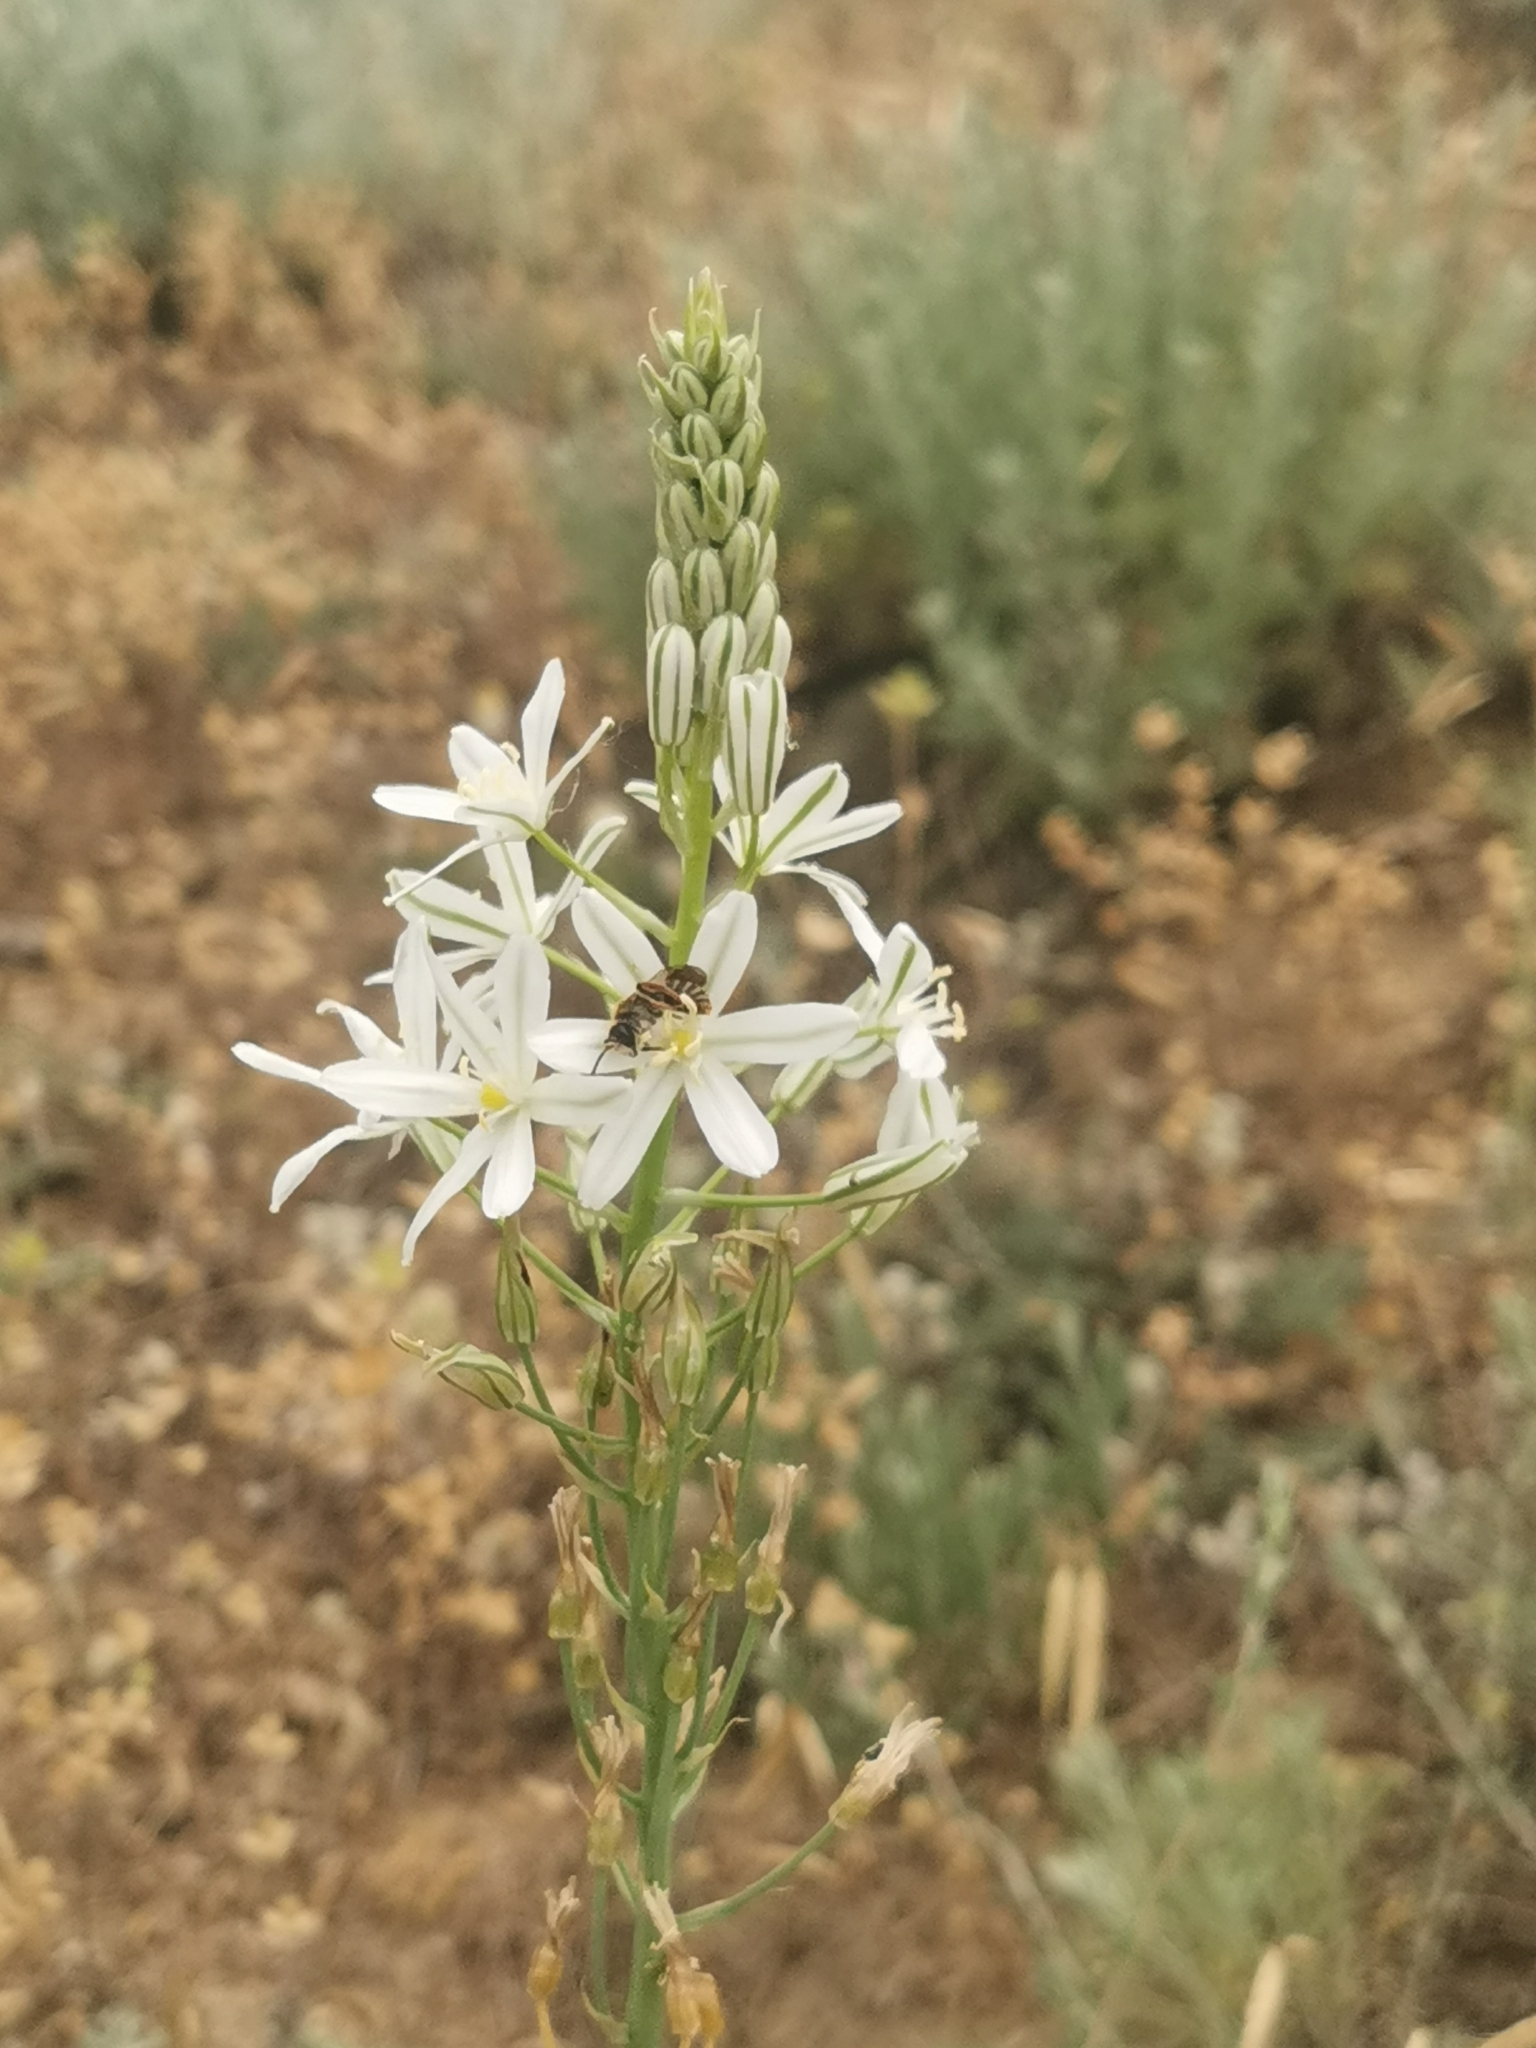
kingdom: Plantae
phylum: Tracheophyta
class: Liliopsida
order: Asparagales
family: Asparagaceae
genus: Ornithogalum
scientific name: Ornithogalum ponticum
